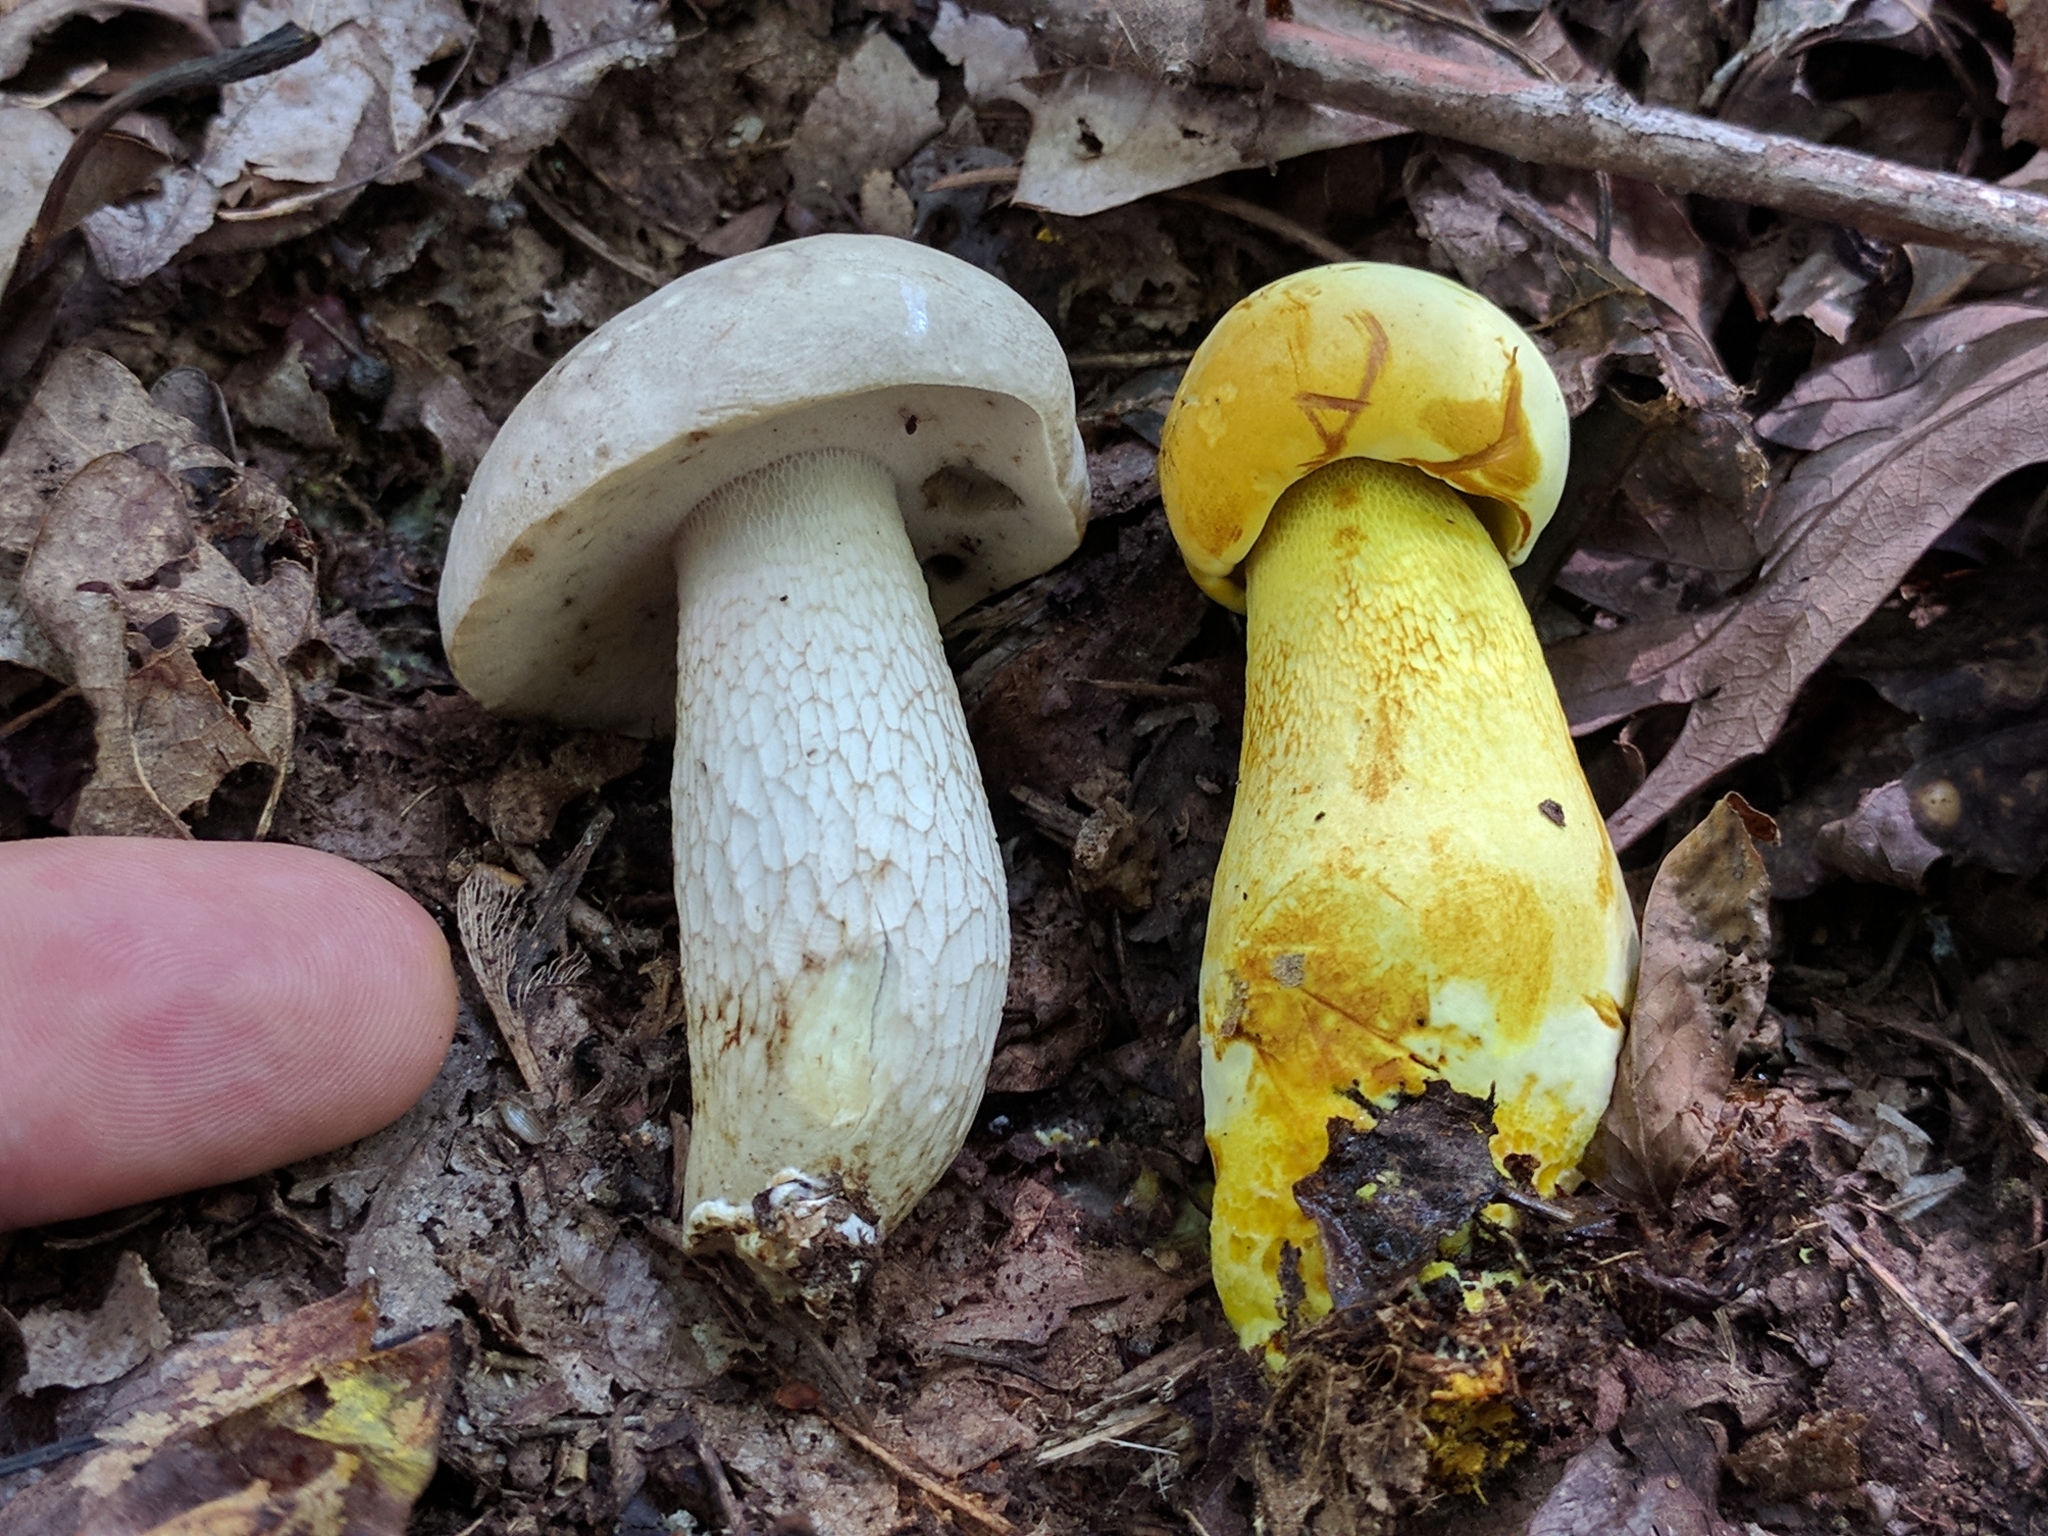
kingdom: Fungi
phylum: Basidiomycota
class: Agaricomycetes
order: Boletales
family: Boletaceae
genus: Retiboletus
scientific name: Retiboletus ornatipes
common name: Ornate-stalked bolete
